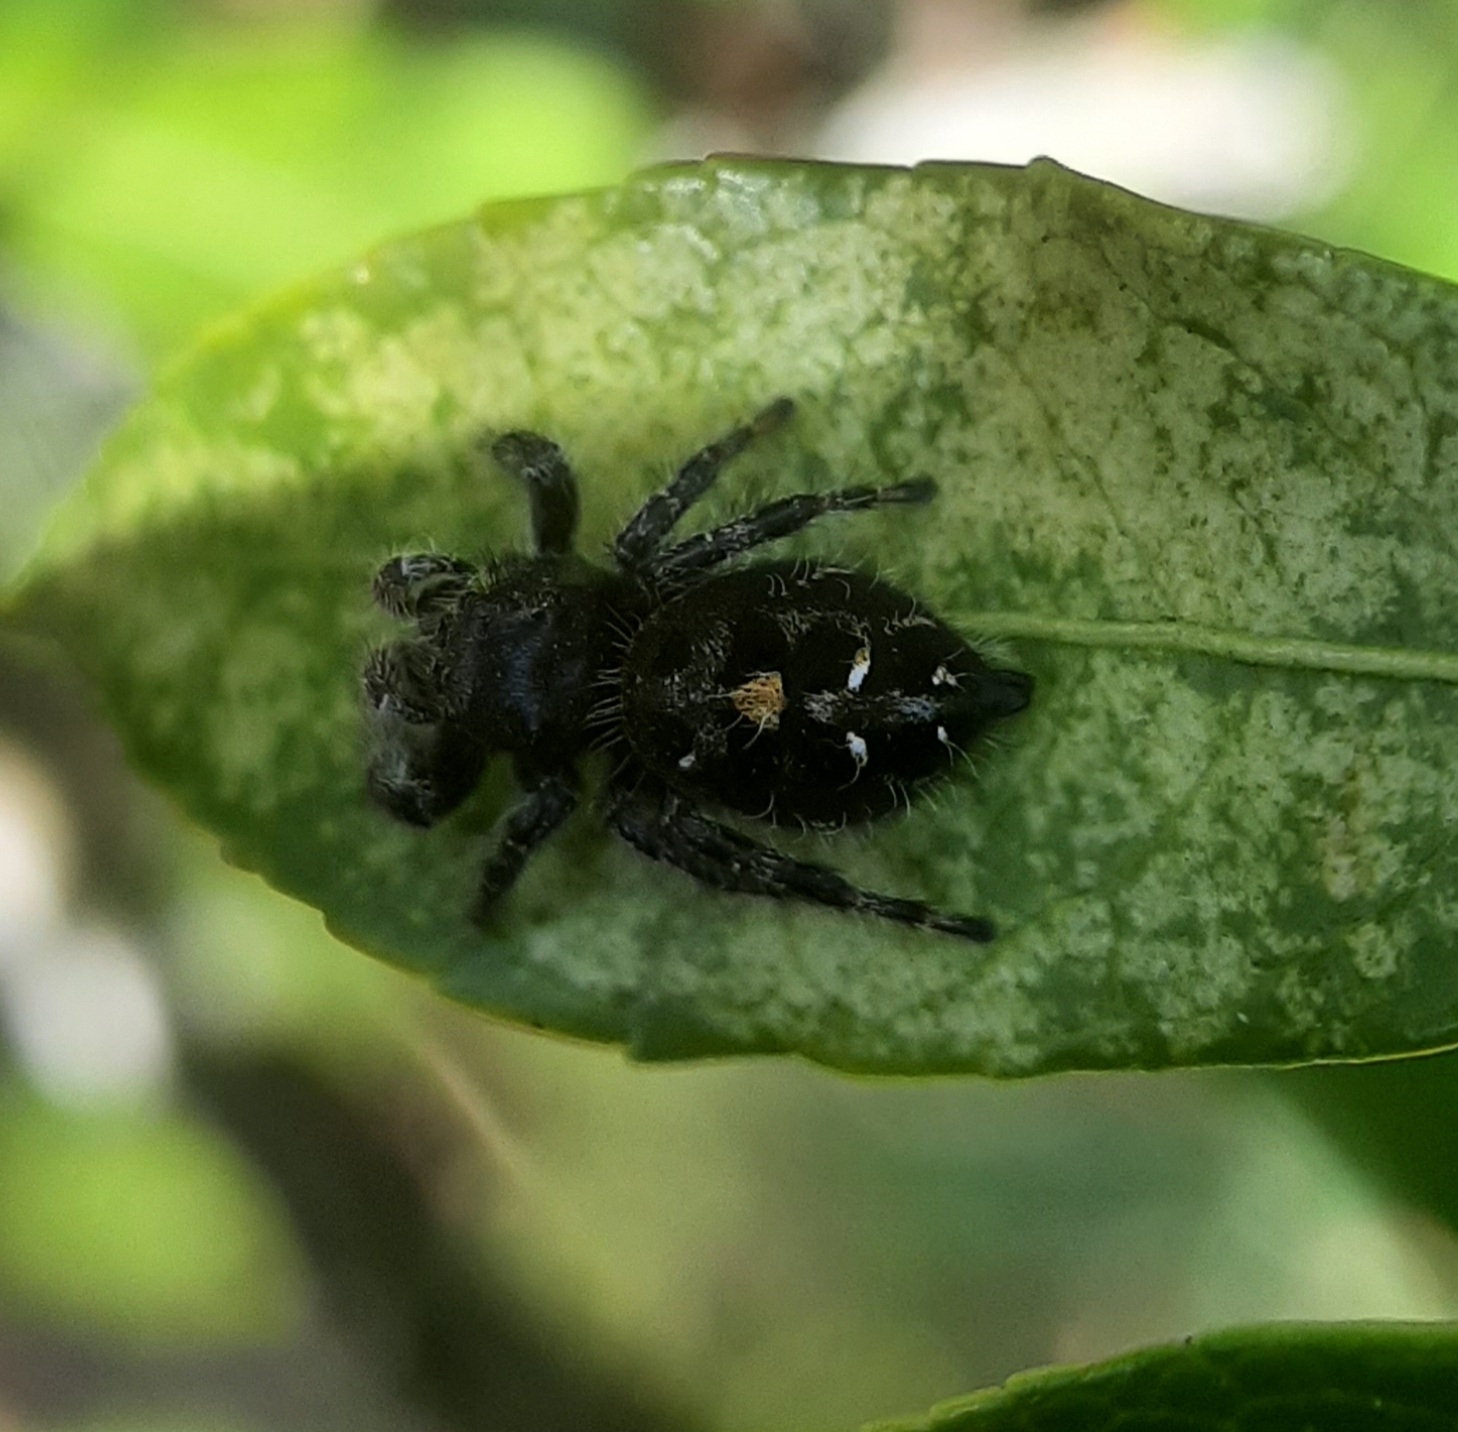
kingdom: Animalia
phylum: Arthropoda
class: Arachnida
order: Araneae
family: Salticidae
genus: Phidippus
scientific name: Phidippus audax
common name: Bold jumper
